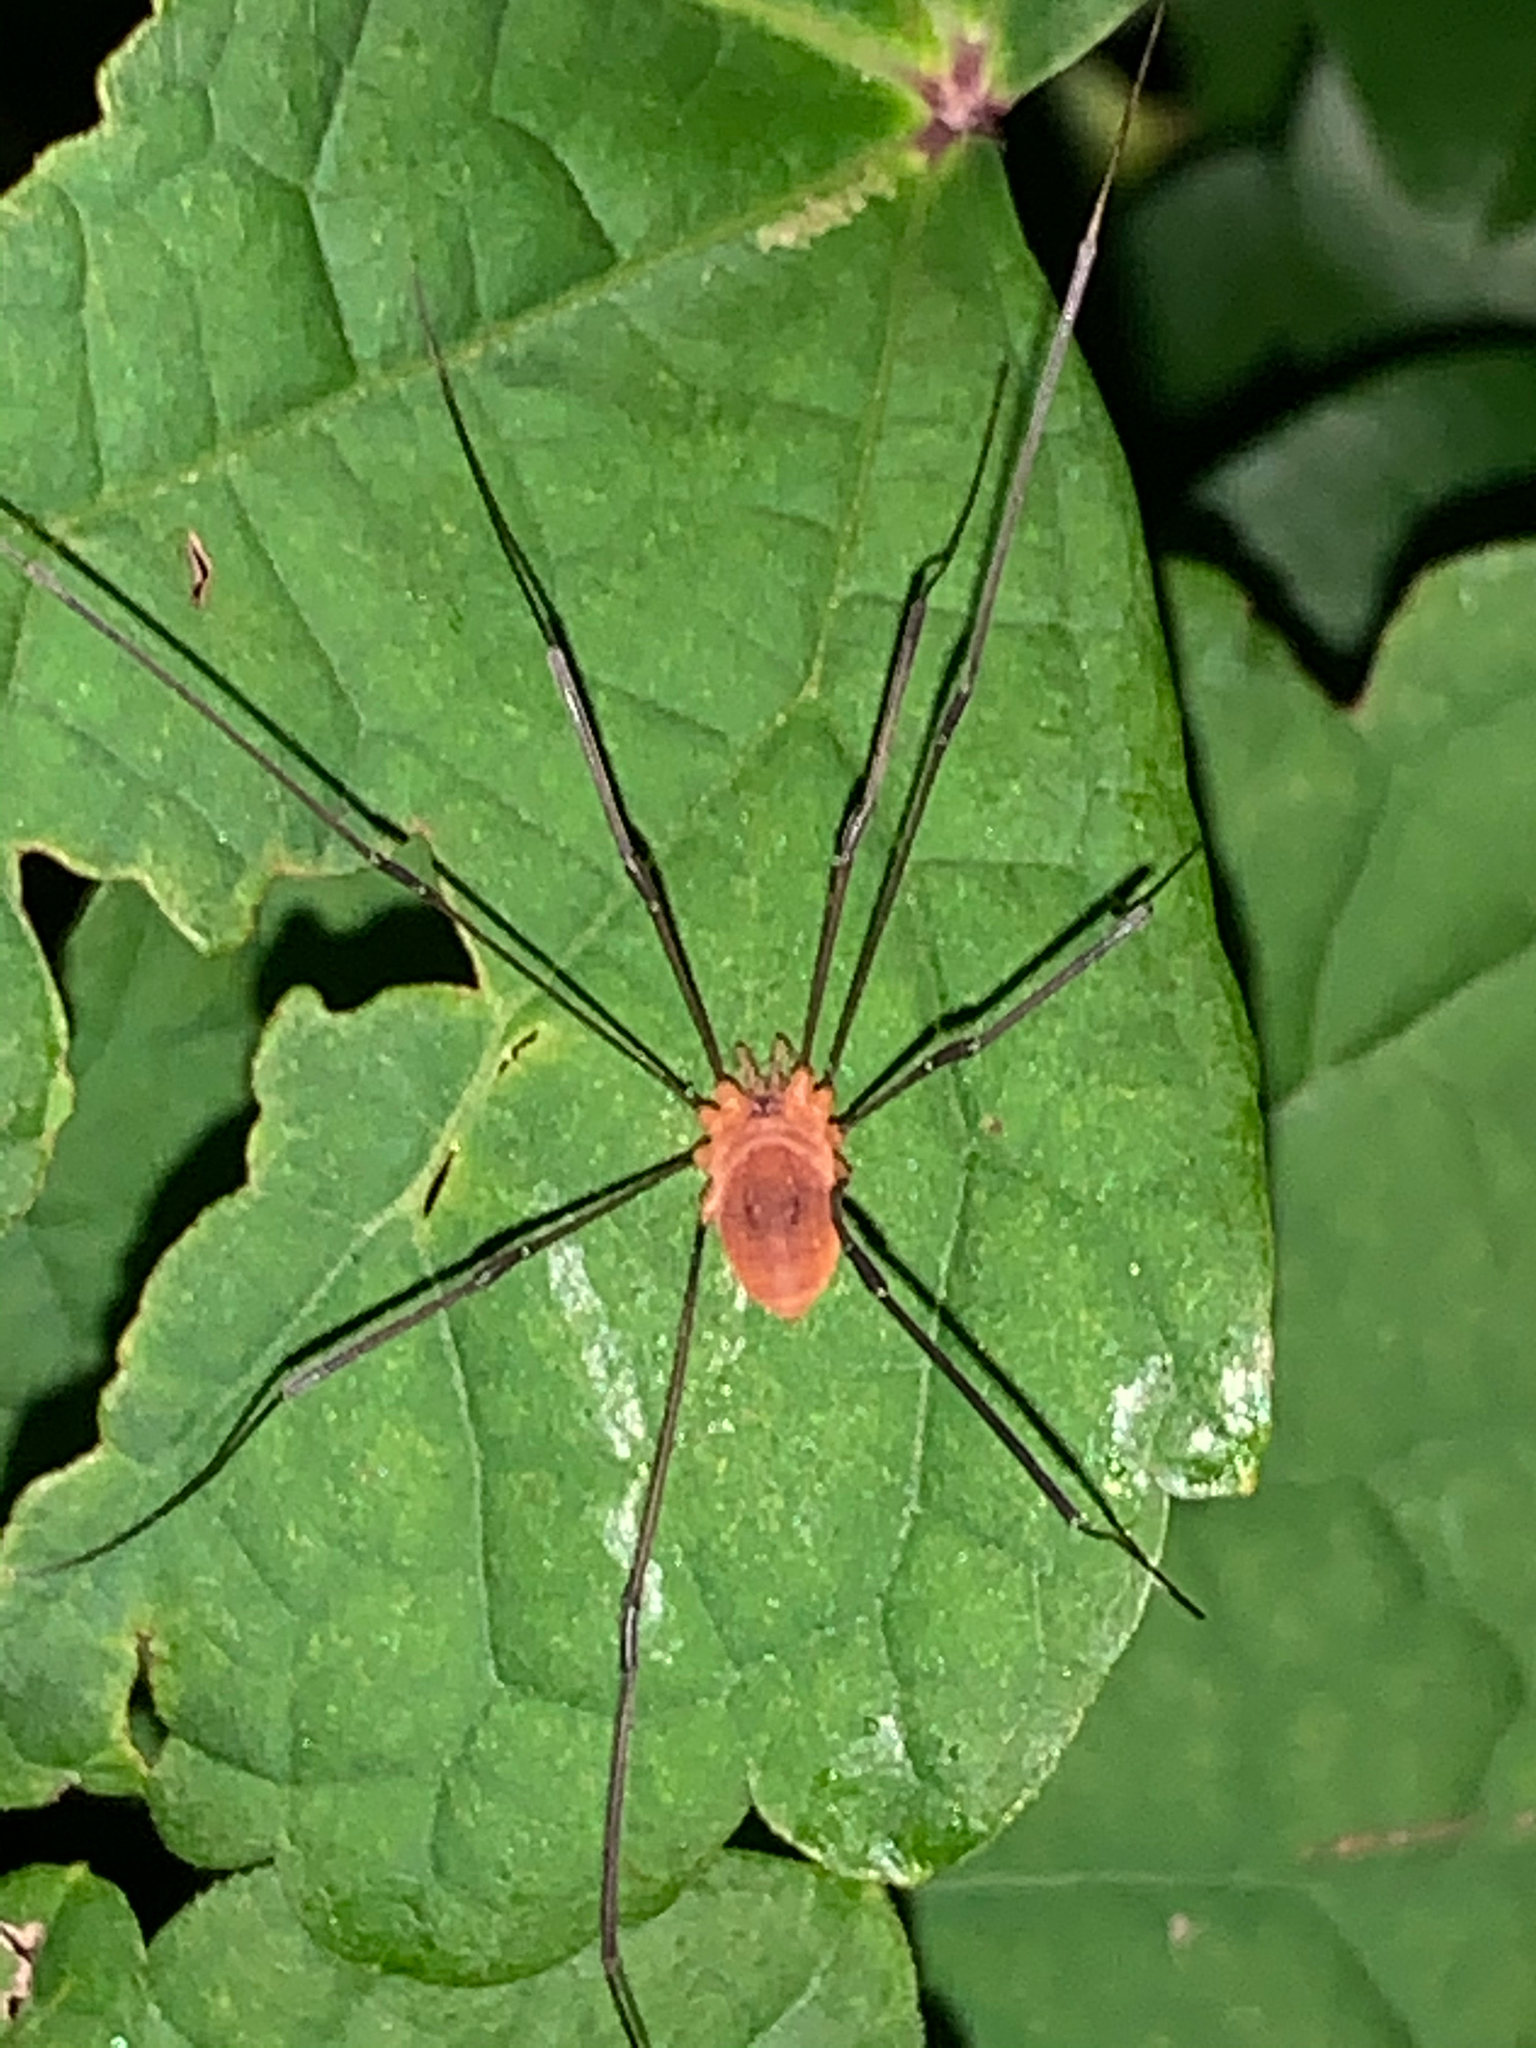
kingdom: Animalia
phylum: Arthropoda
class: Arachnida
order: Opiliones
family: Sclerosomatidae
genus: Leiobunum
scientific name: Leiobunum bracchiolum
